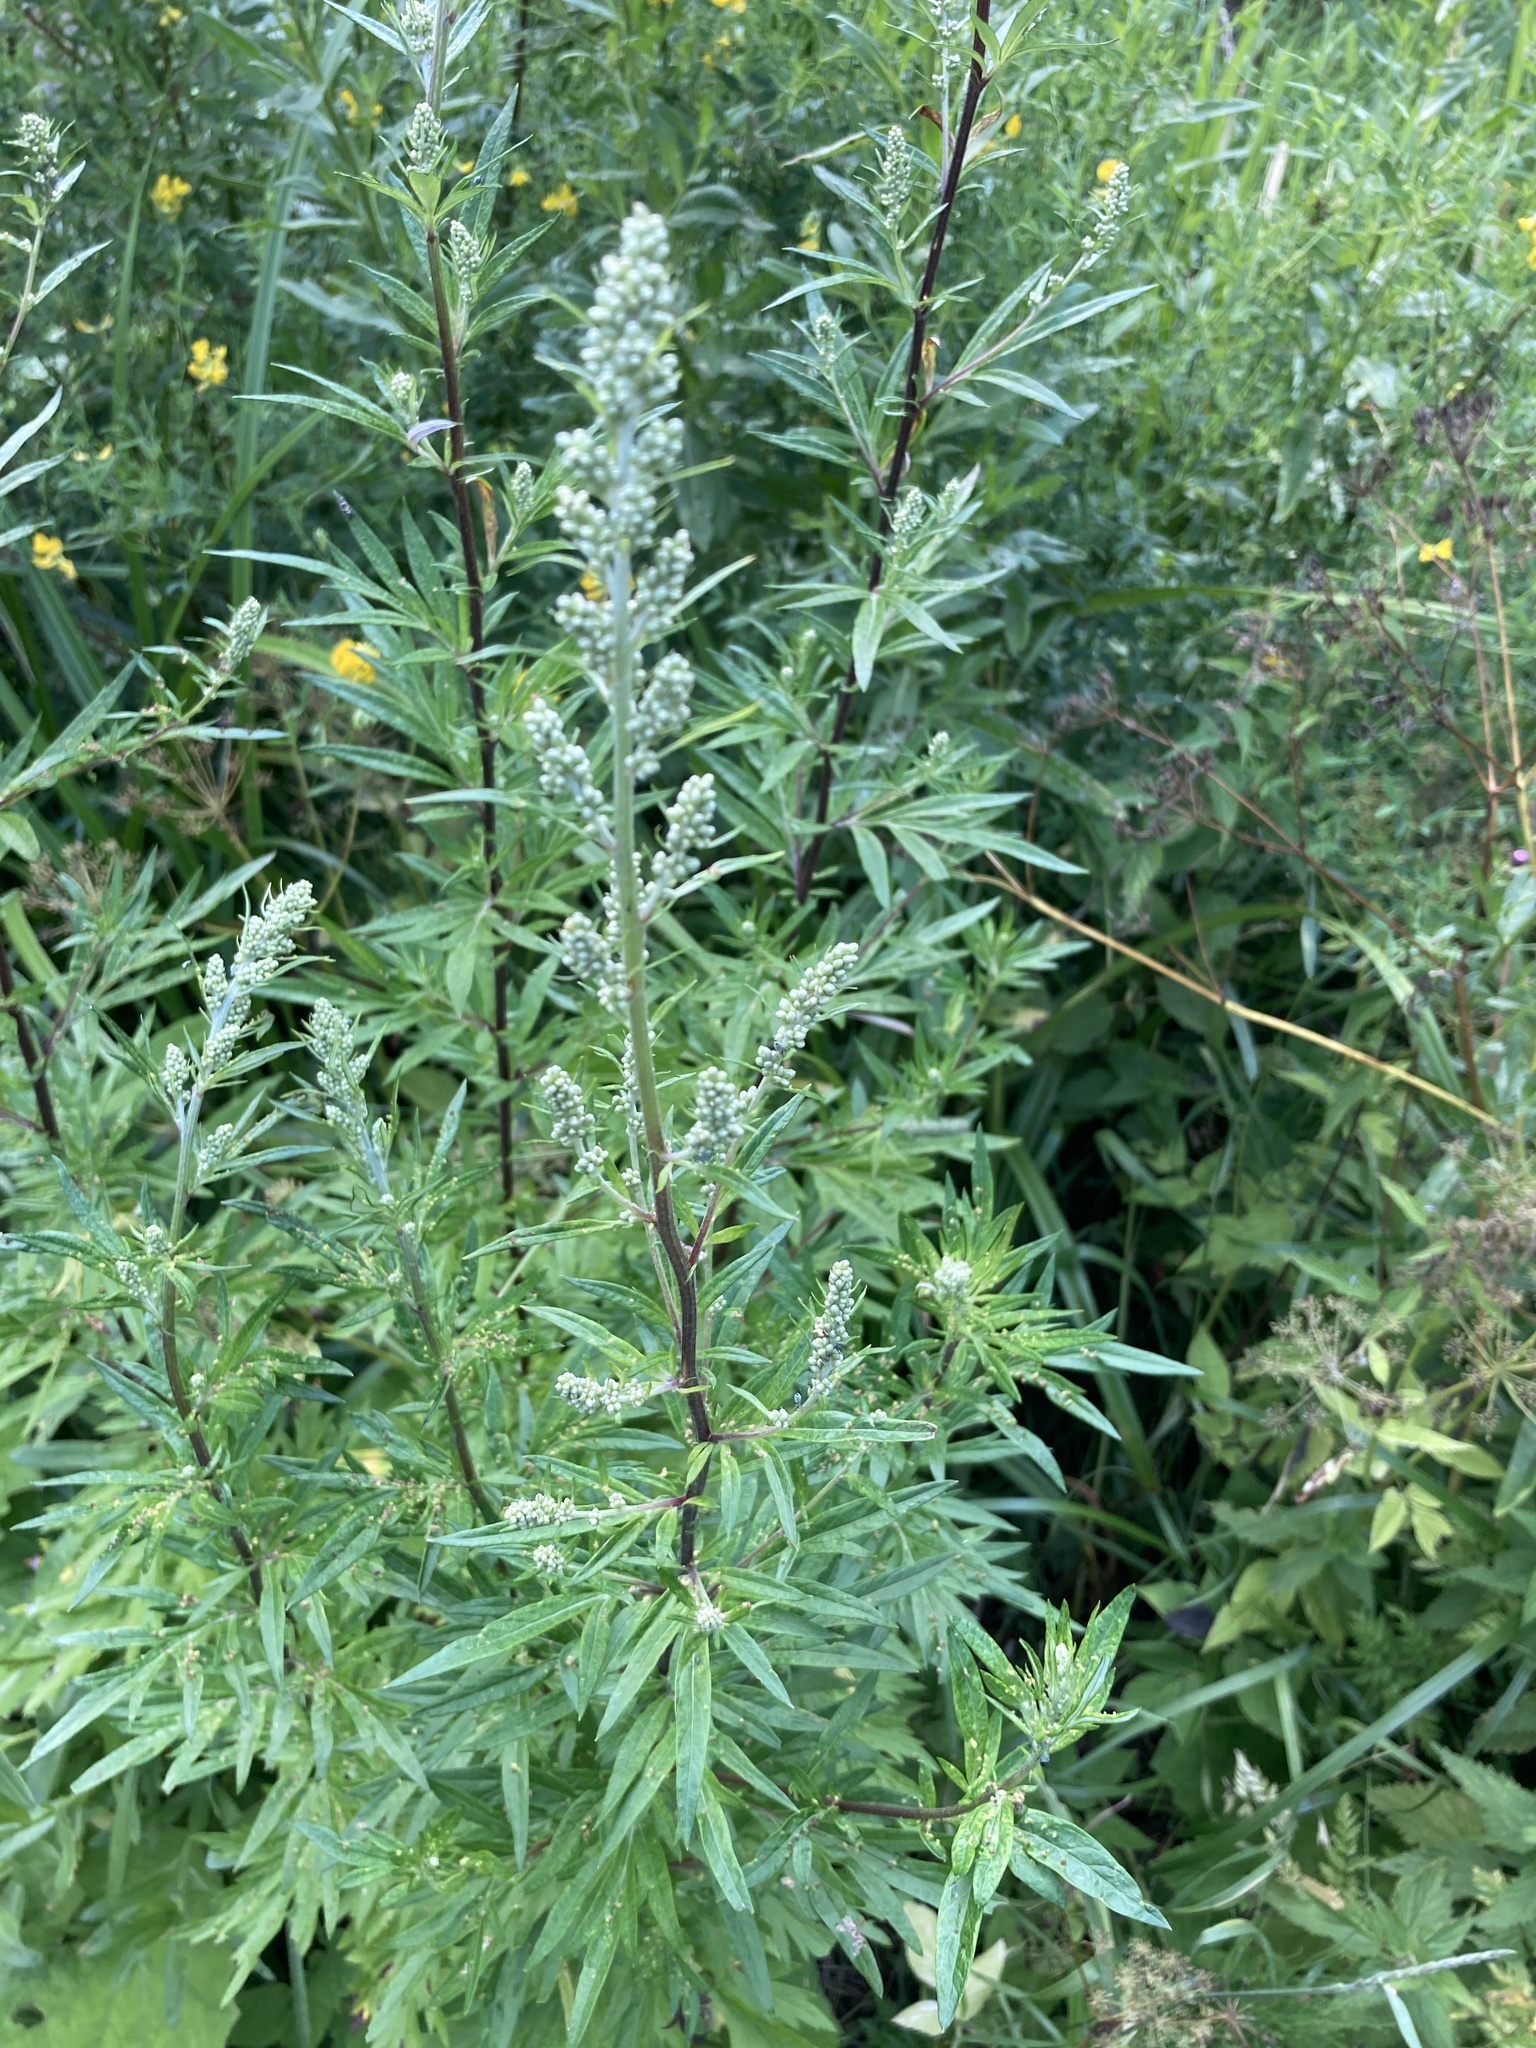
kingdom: Plantae
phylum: Tracheophyta
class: Magnoliopsida
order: Asterales
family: Asteraceae
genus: Artemisia
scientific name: Artemisia vulgaris
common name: Mugwort
